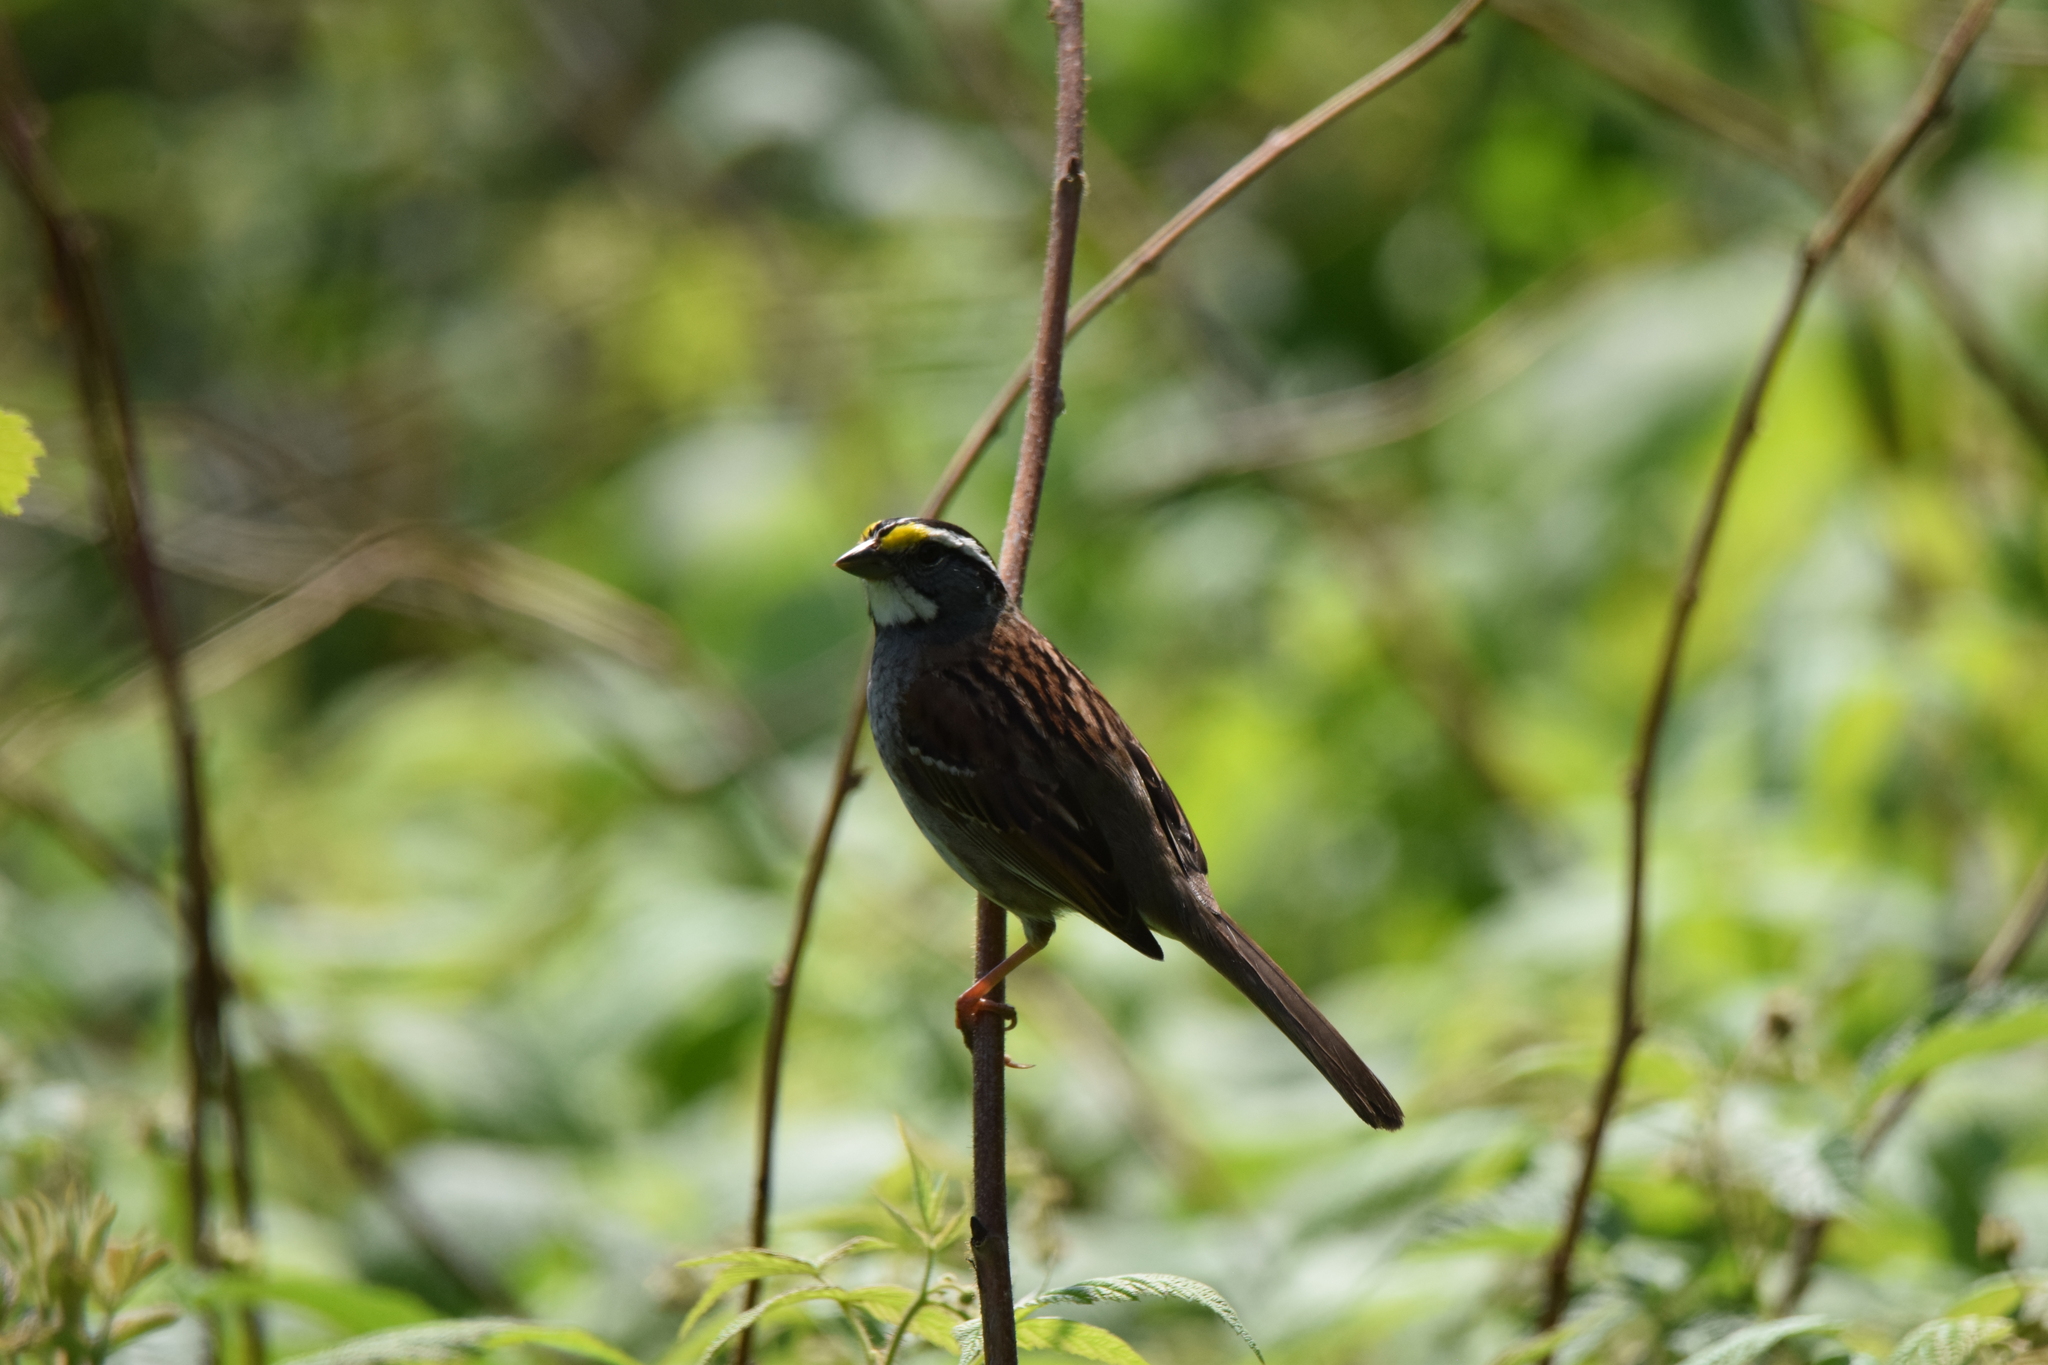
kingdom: Animalia
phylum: Chordata
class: Aves
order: Passeriformes
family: Passerellidae
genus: Zonotrichia
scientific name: Zonotrichia albicollis
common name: White-throated sparrow
